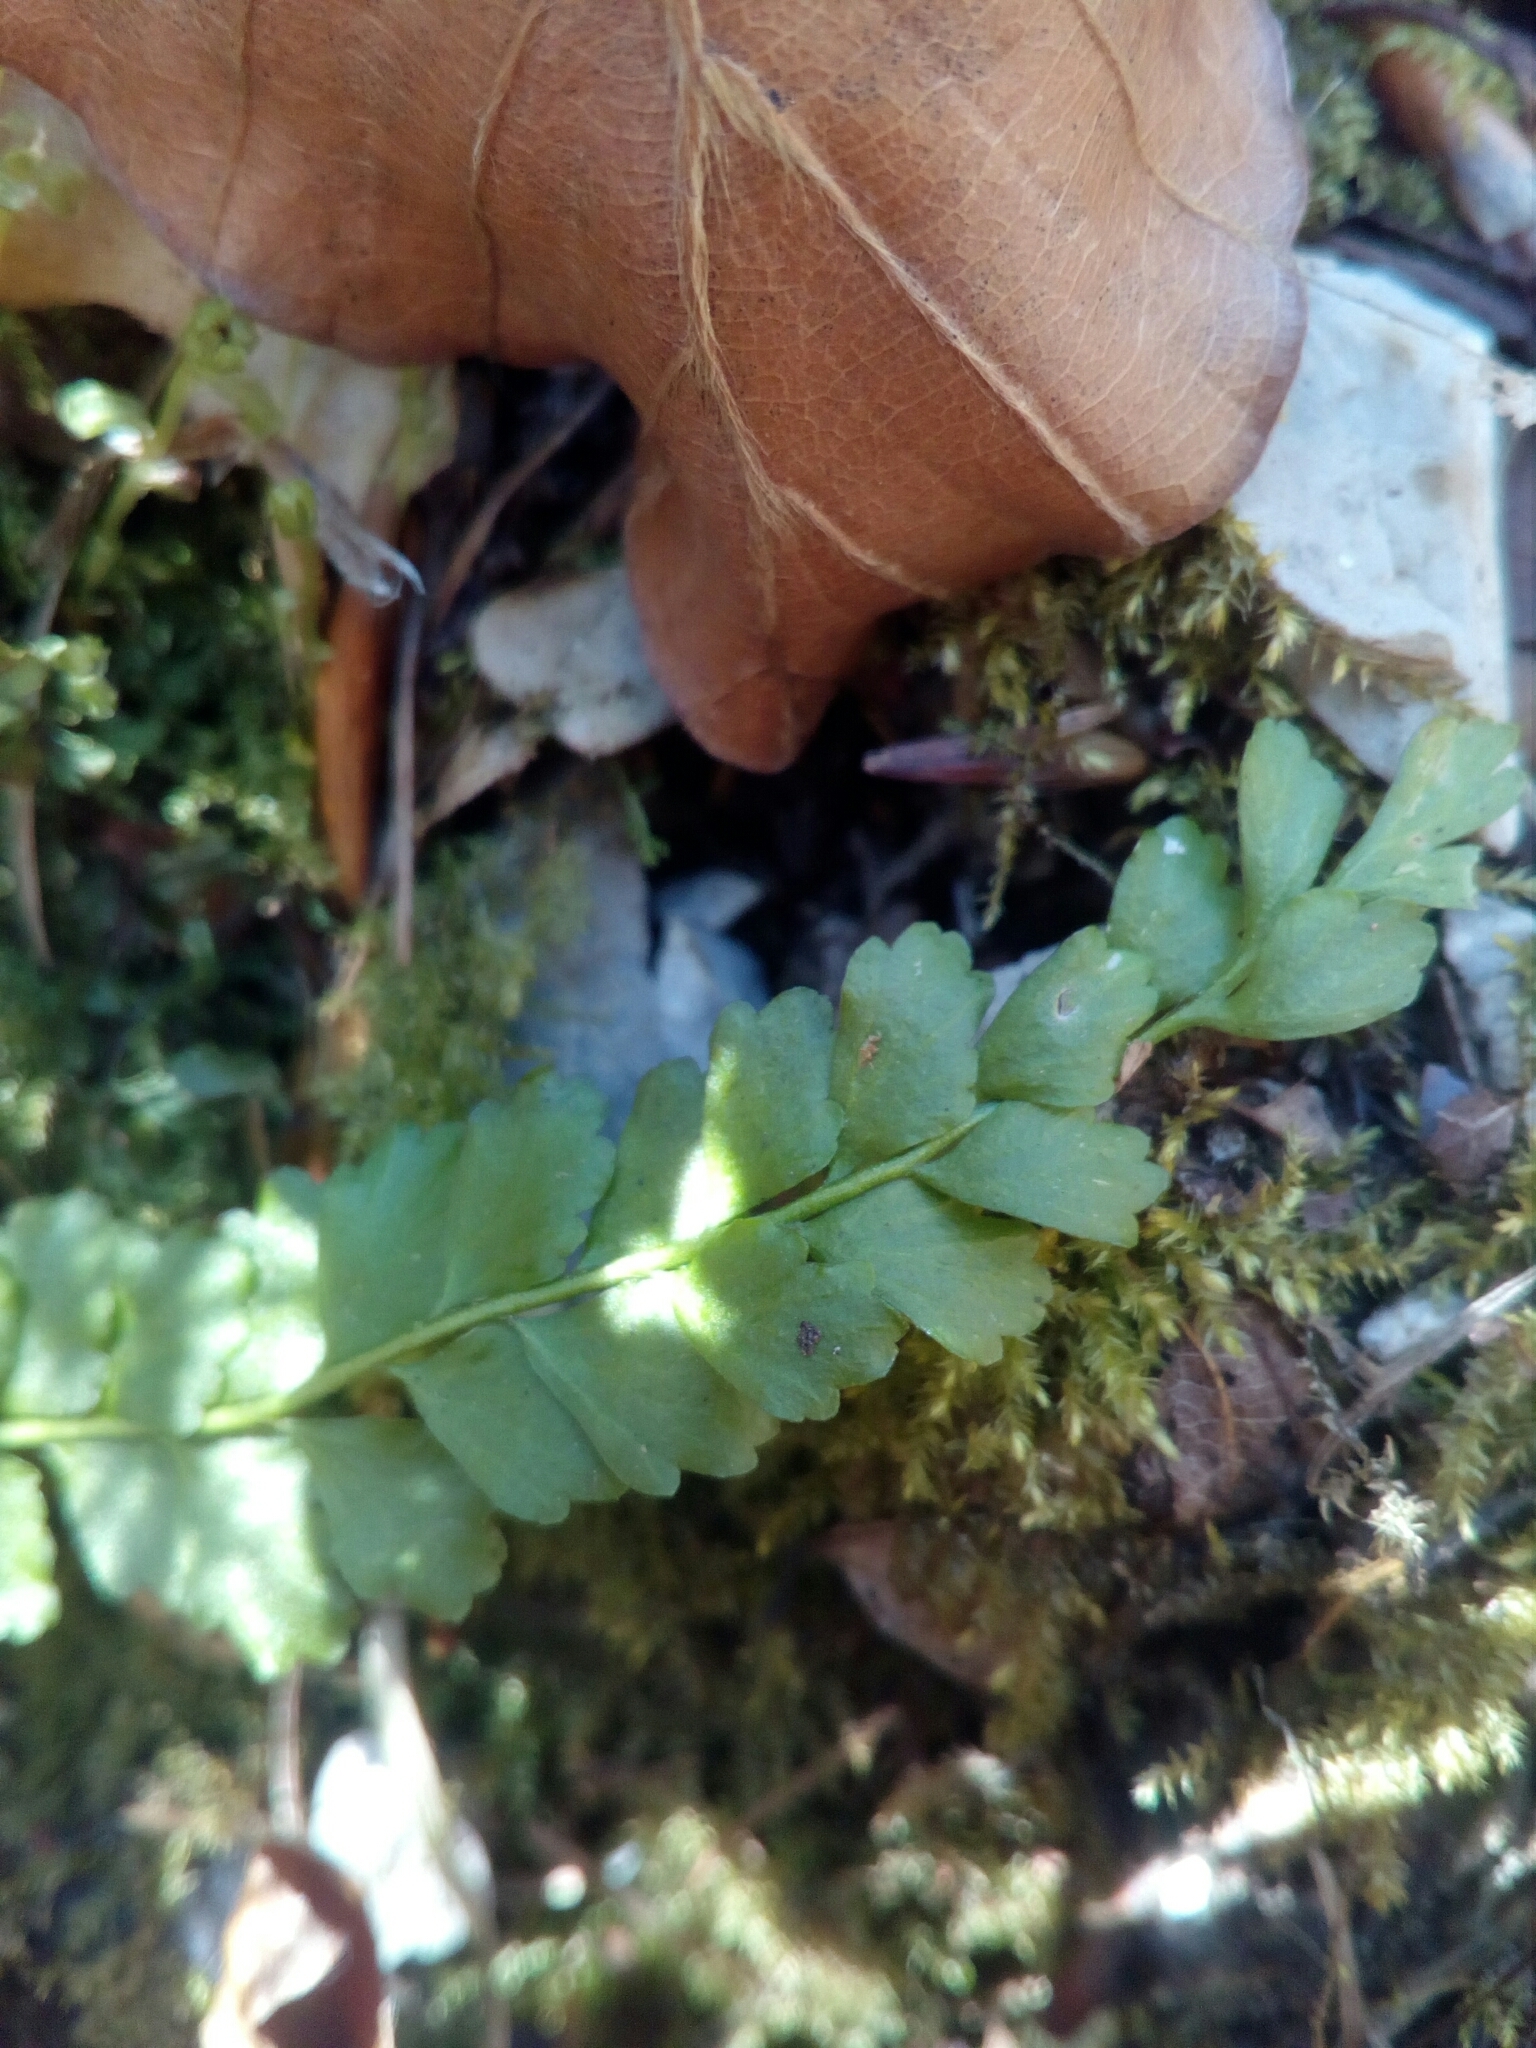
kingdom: Plantae
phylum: Tracheophyta
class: Polypodiopsida
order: Polypodiales
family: Aspleniaceae
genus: Asplenium
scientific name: Asplenium viride
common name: Green spleenwort
